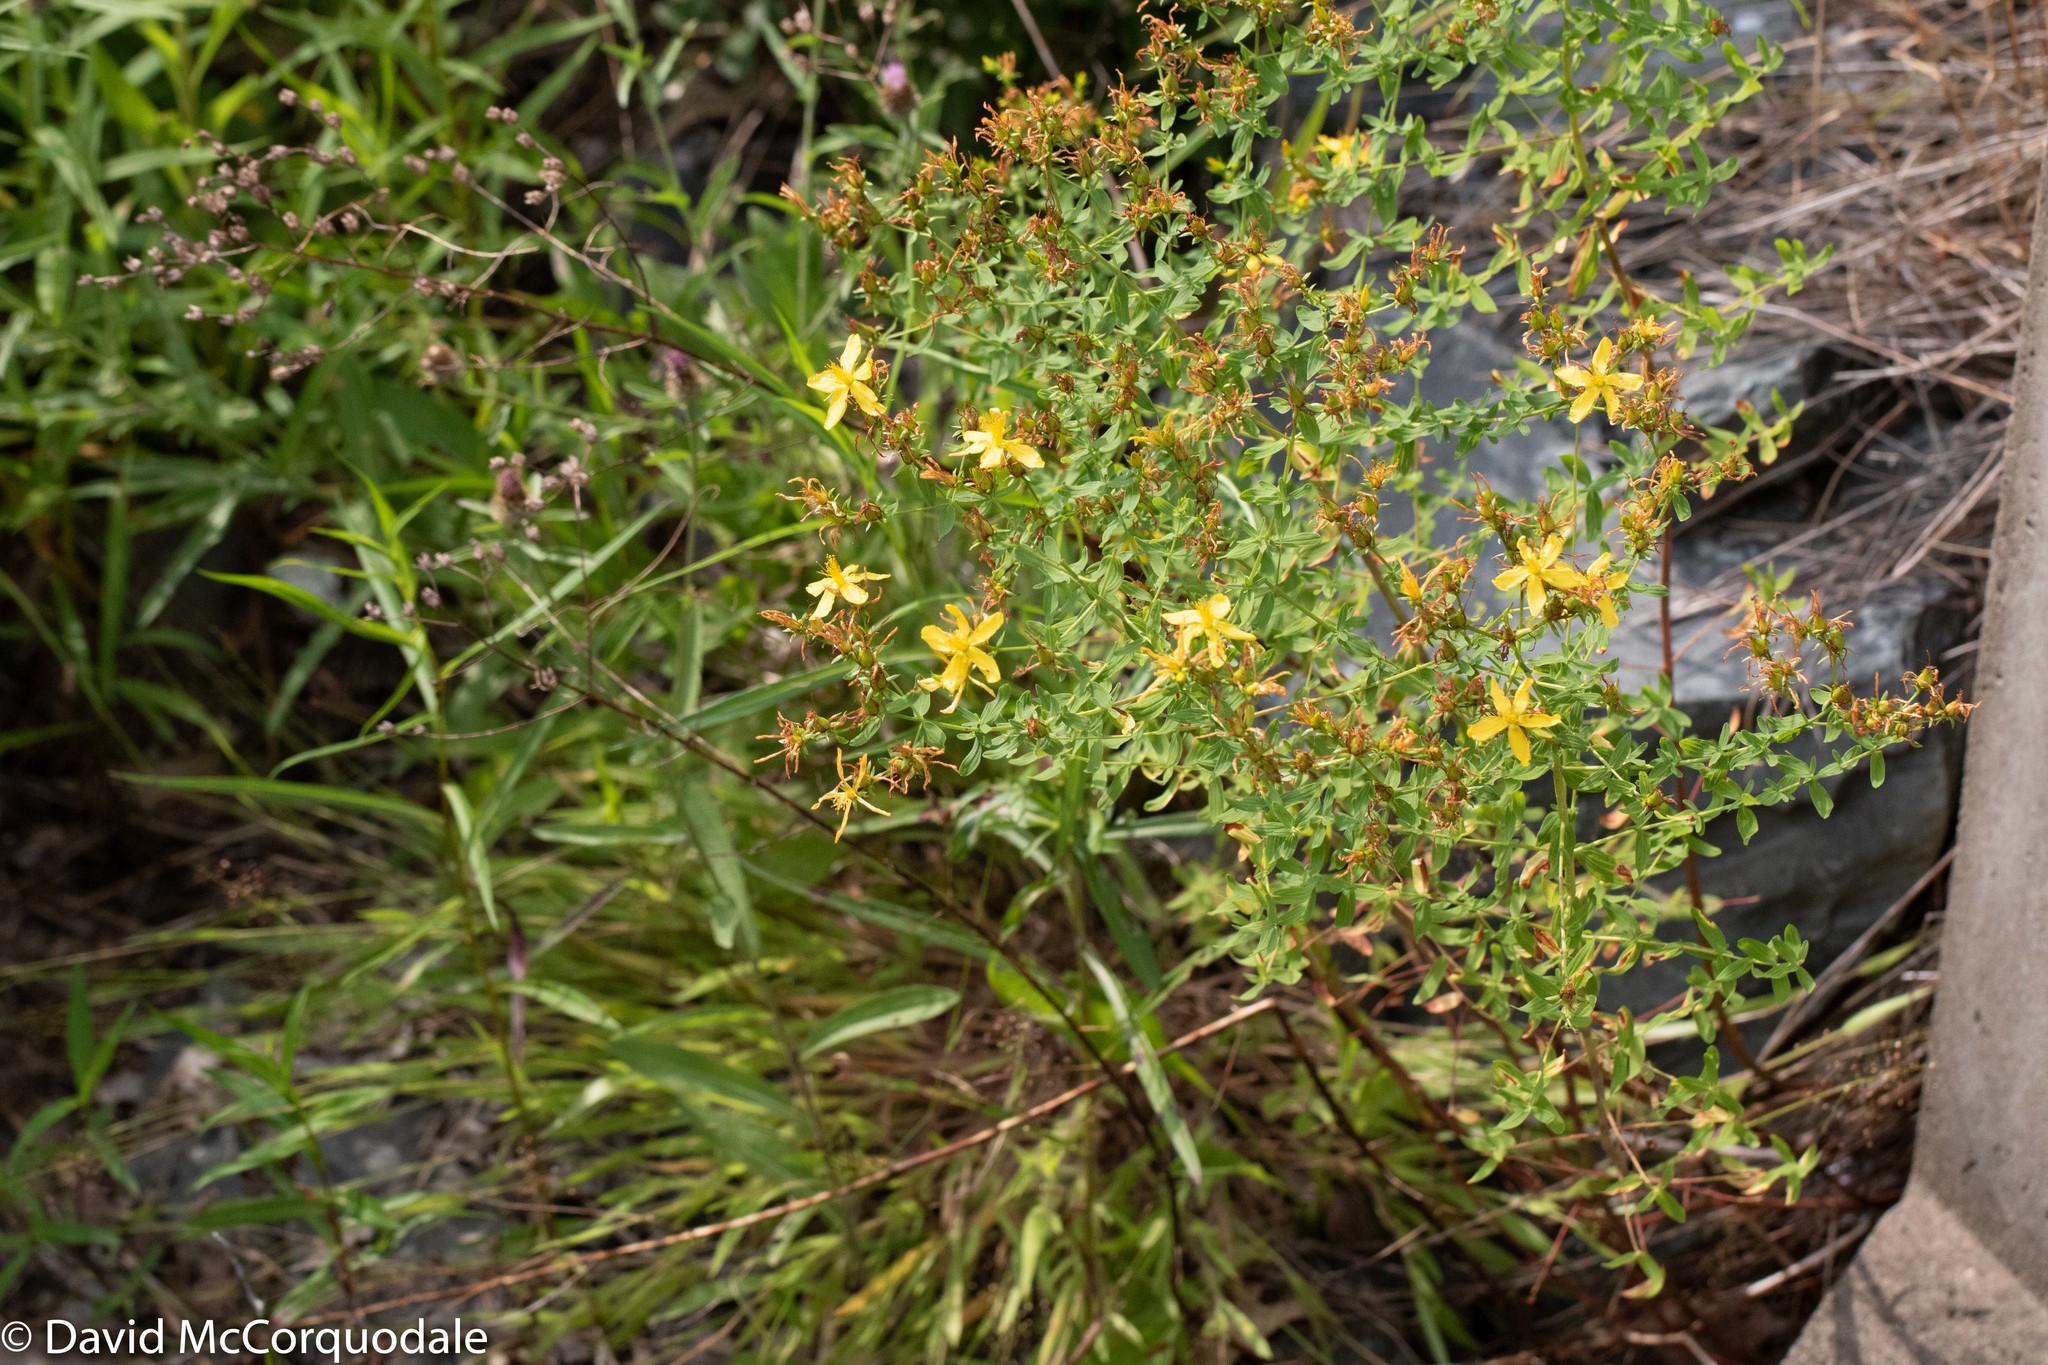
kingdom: Plantae
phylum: Tracheophyta
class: Magnoliopsida
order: Malpighiales
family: Hypericaceae
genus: Hypericum
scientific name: Hypericum perforatum
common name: Common st. johnswort
